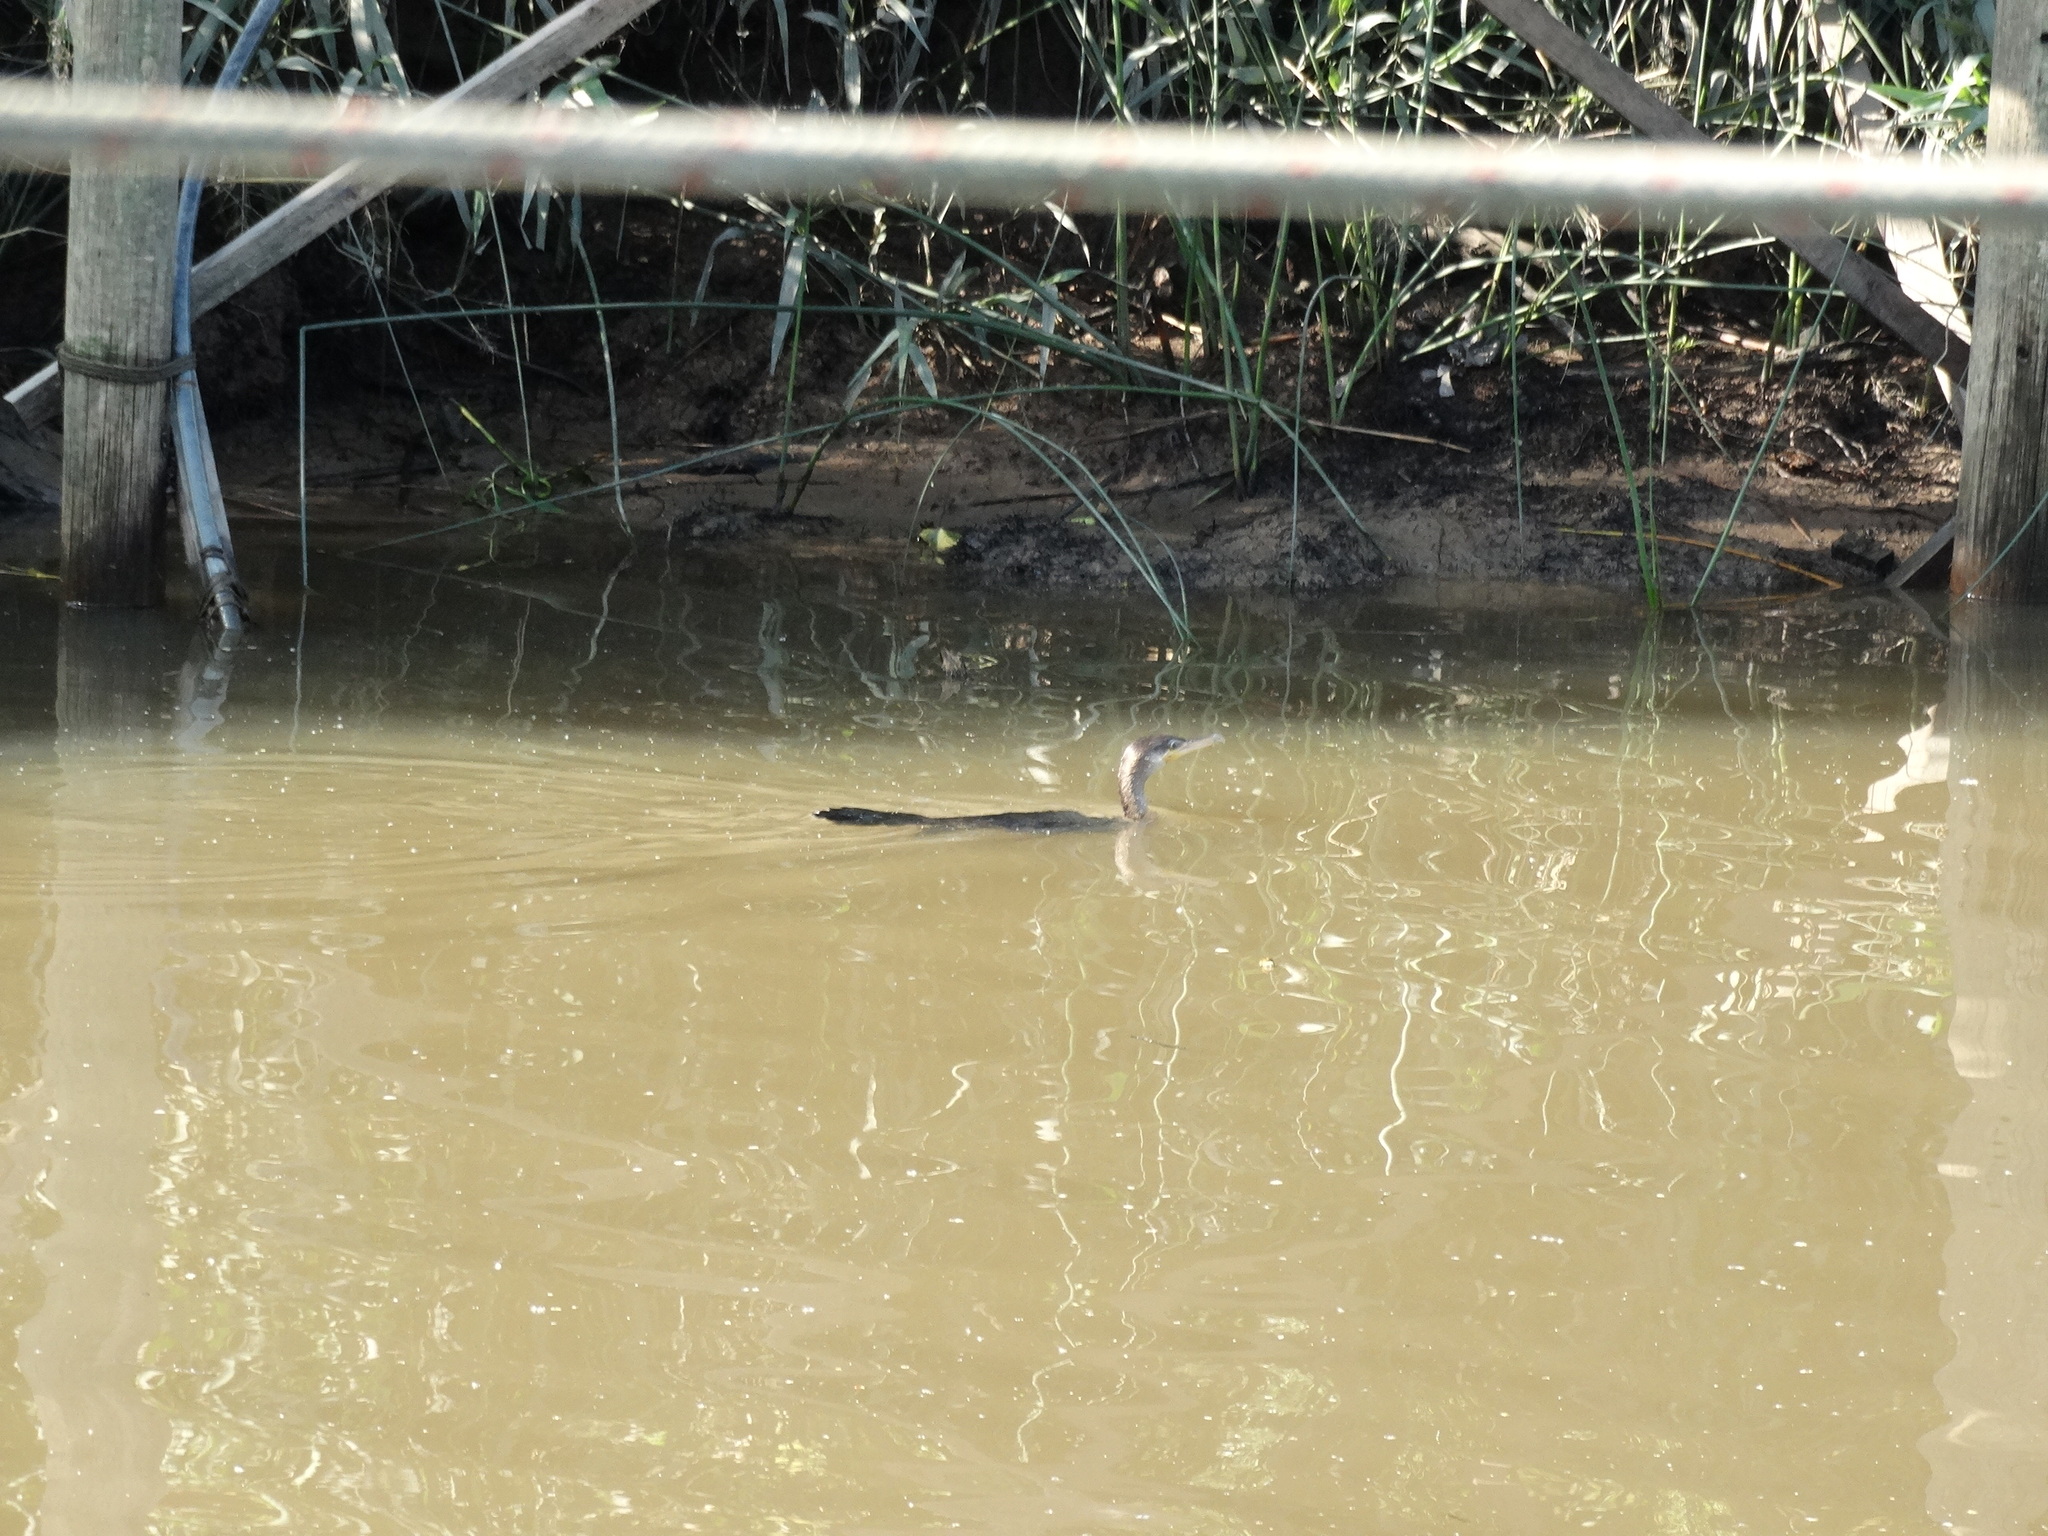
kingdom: Animalia
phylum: Chordata
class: Aves
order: Suliformes
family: Phalacrocoracidae
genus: Phalacrocorax
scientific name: Phalacrocorax brasilianus
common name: Neotropic cormorant
